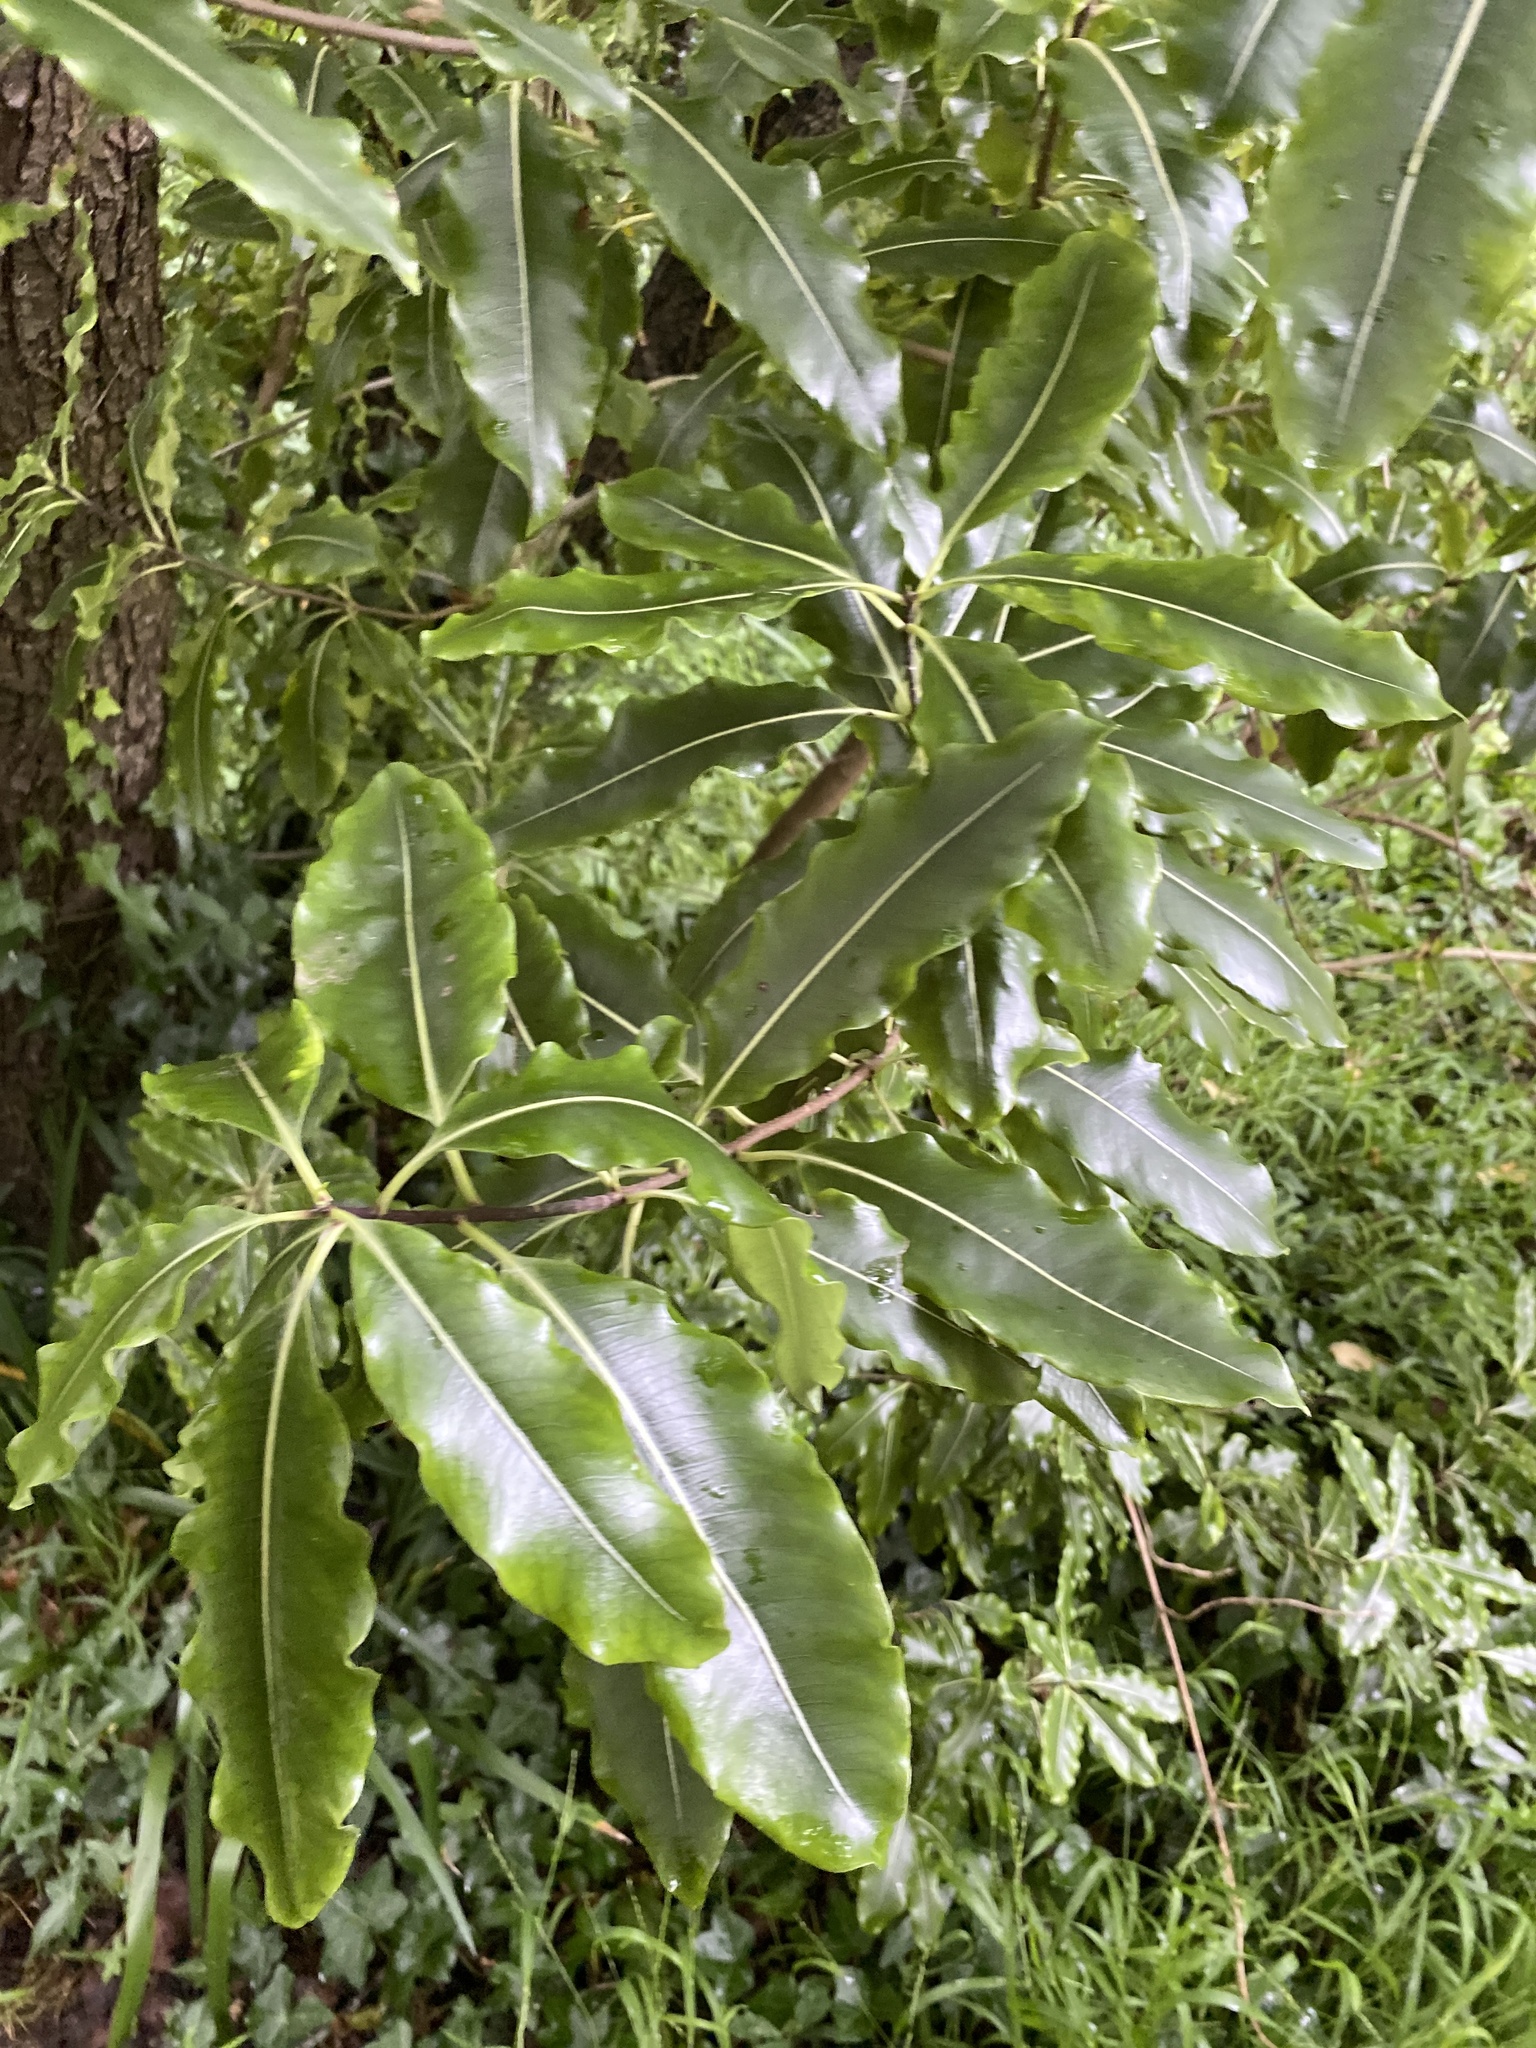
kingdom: Plantae
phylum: Tracheophyta
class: Magnoliopsida
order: Apiales
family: Pittosporaceae
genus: Pittosporum
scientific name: Pittosporum eugenioides
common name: Lemonwood
